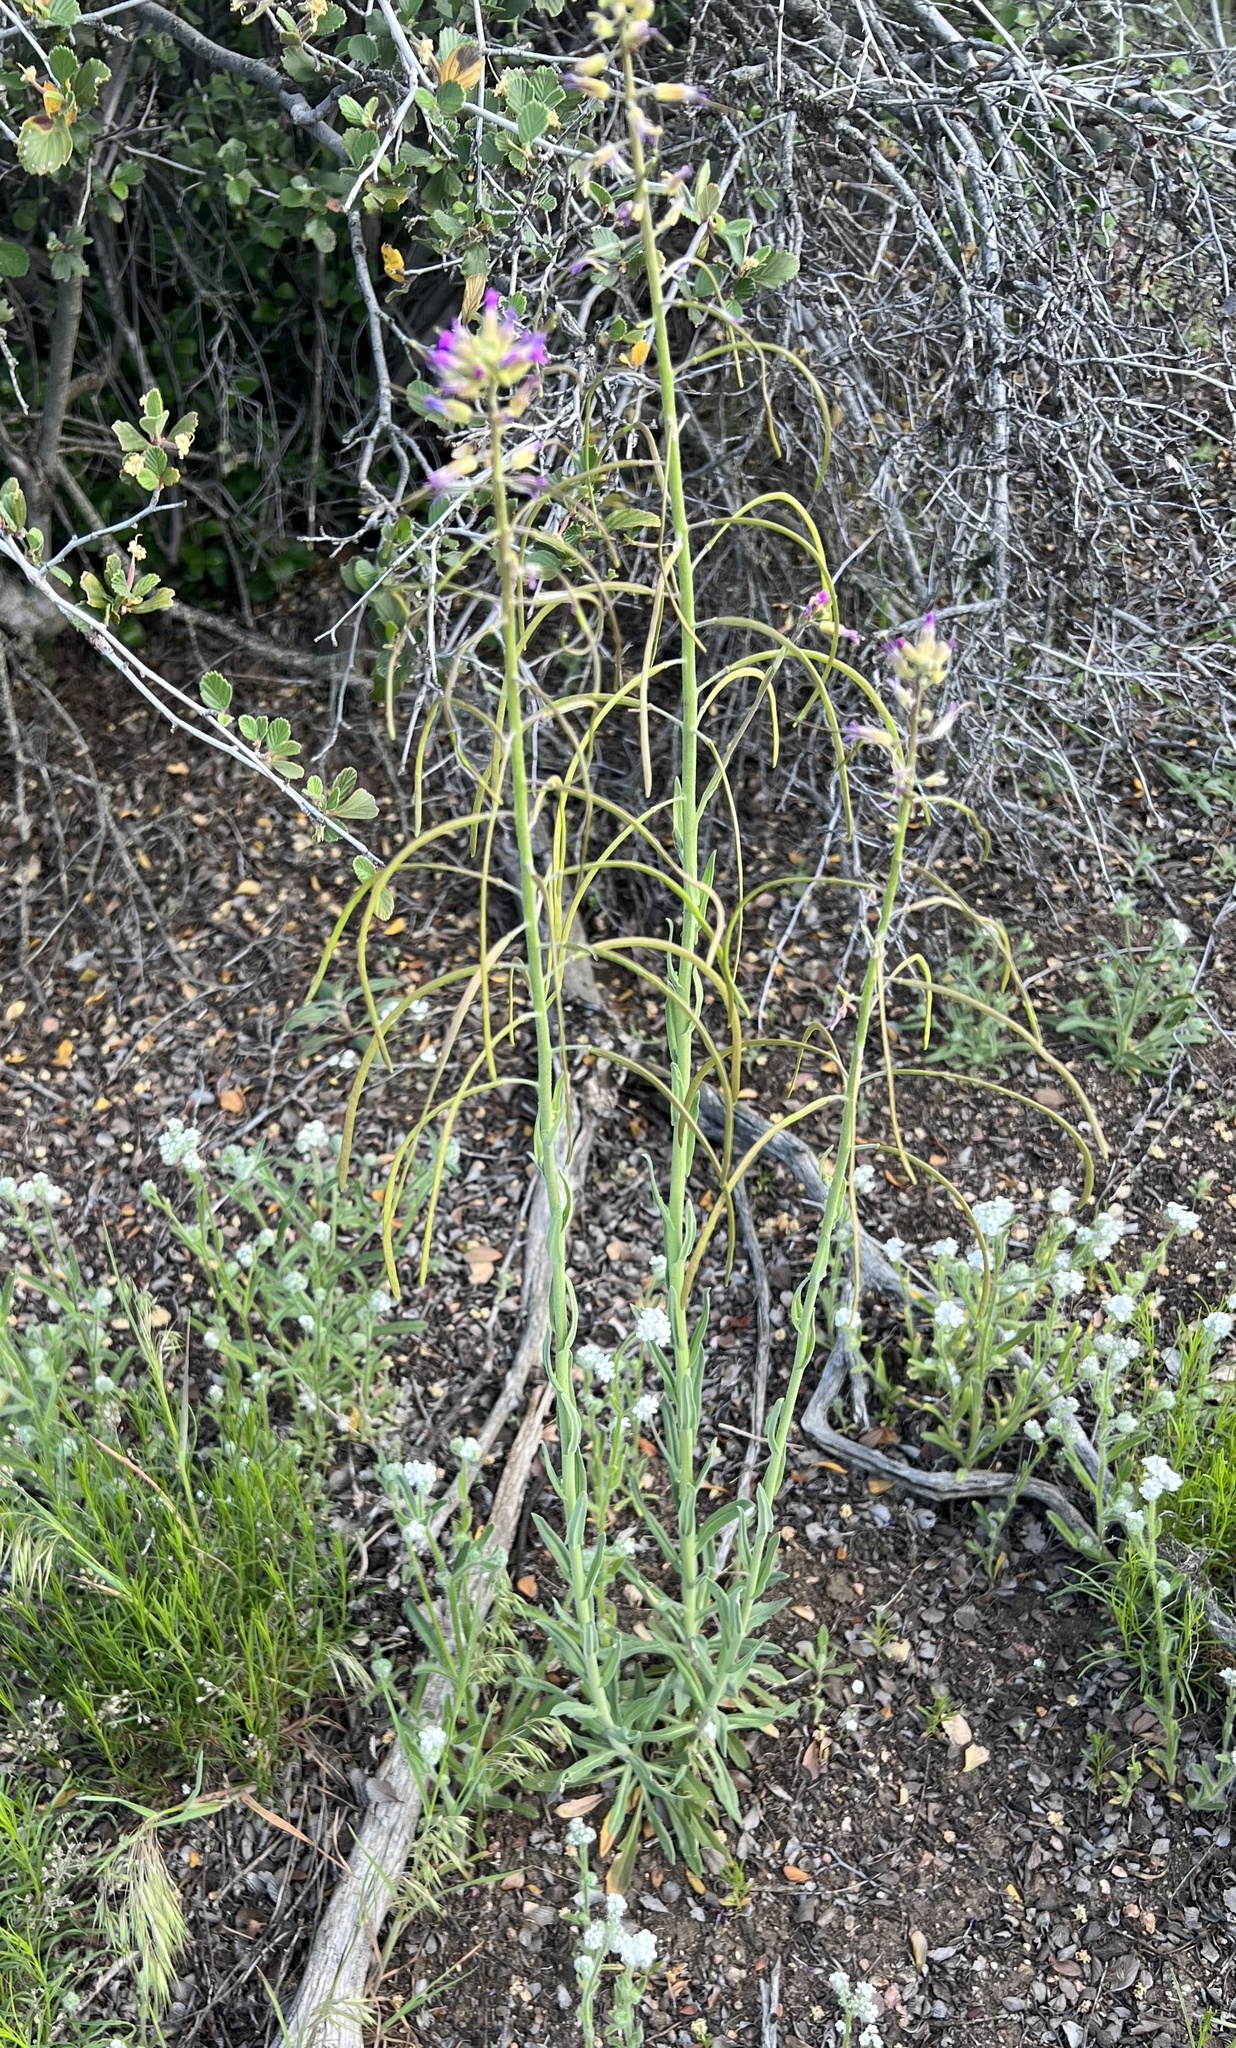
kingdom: Plantae
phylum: Tracheophyta
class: Magnoliopsida
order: Brassicales
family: Brassicaceae
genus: Boechera
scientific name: Boechera californica
